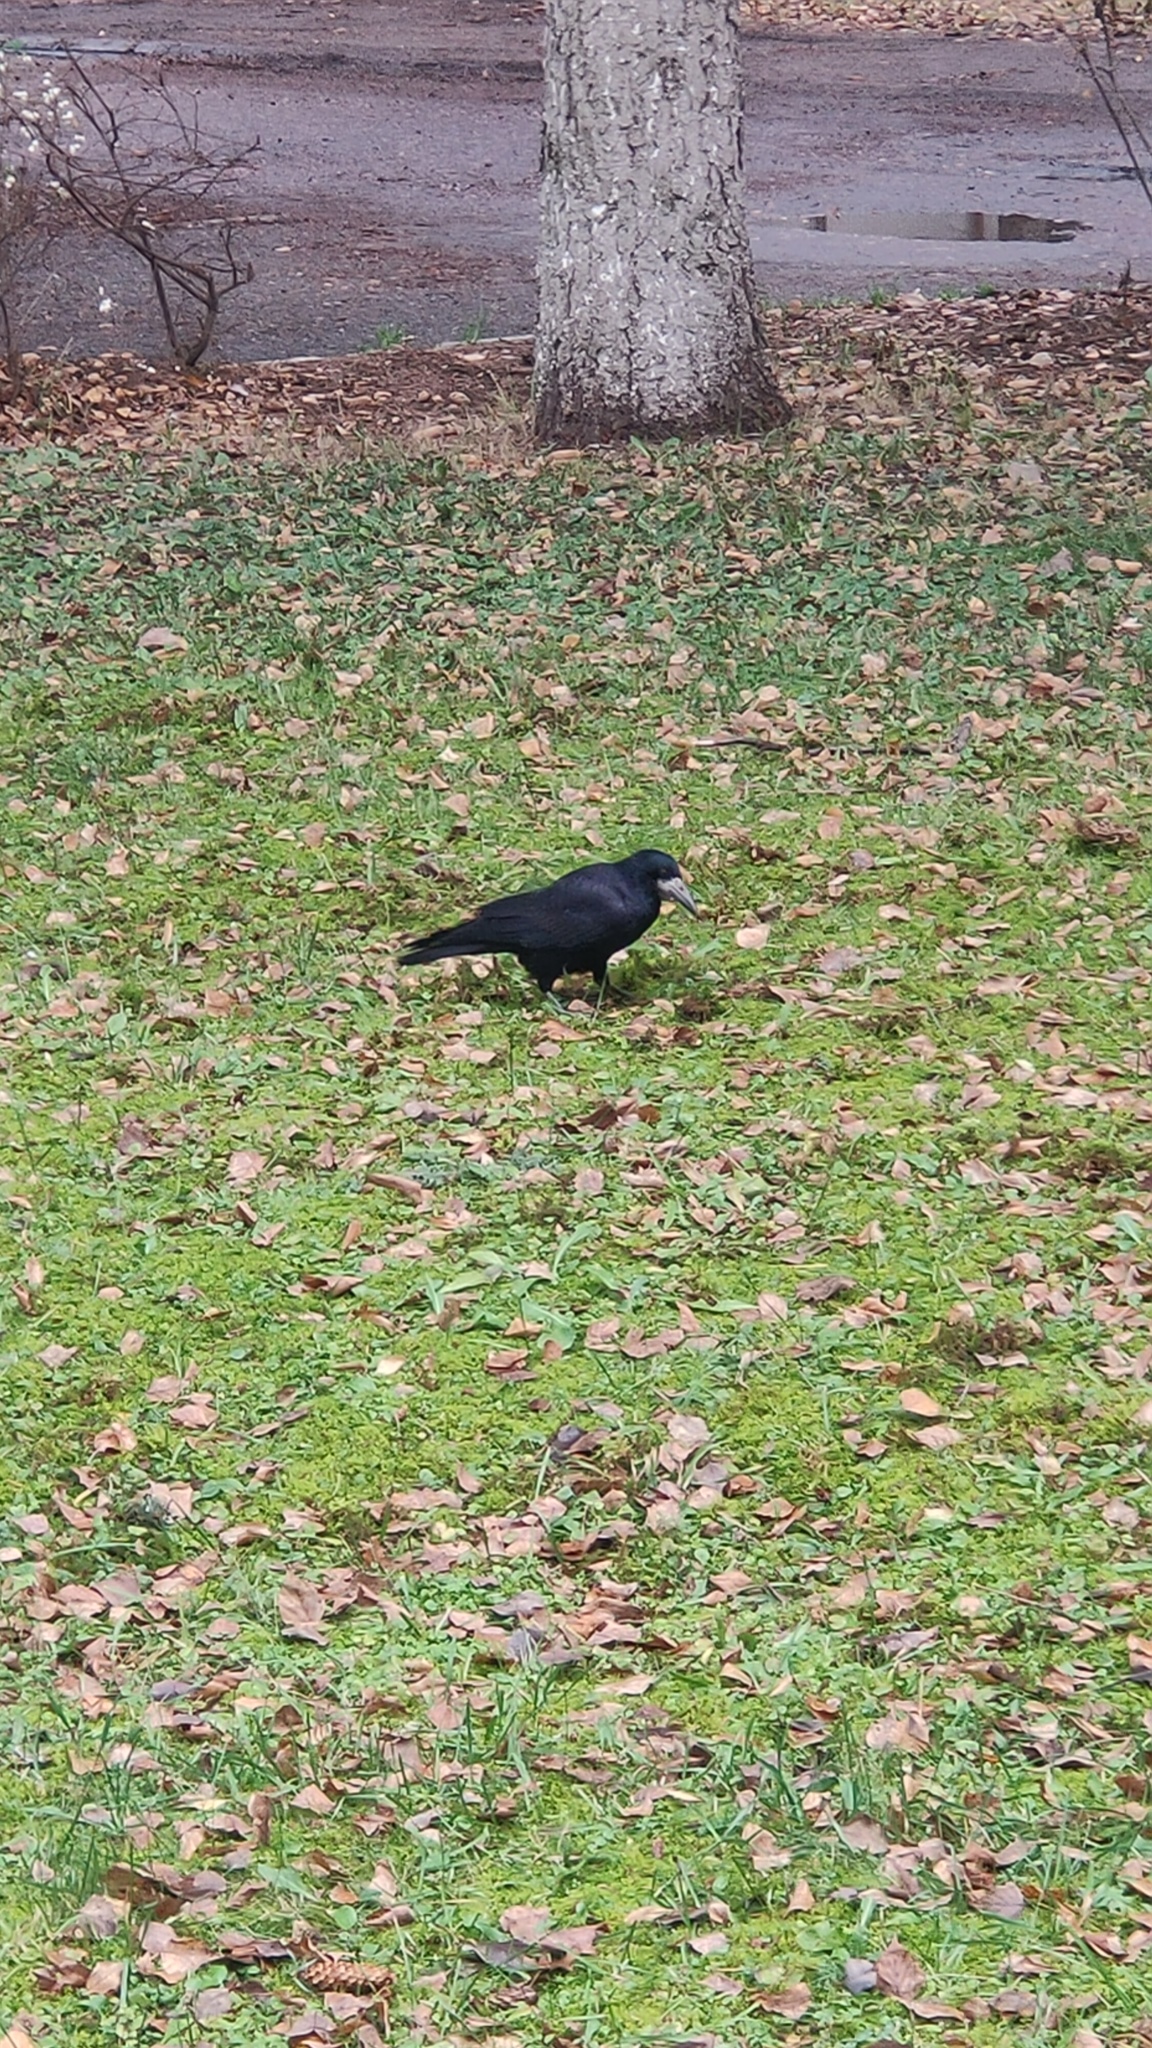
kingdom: Animalia
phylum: Chordata
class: Aves
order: Passeriformes
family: Corvidae
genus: Corvus
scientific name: Corvus frugilegus
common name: Rook
